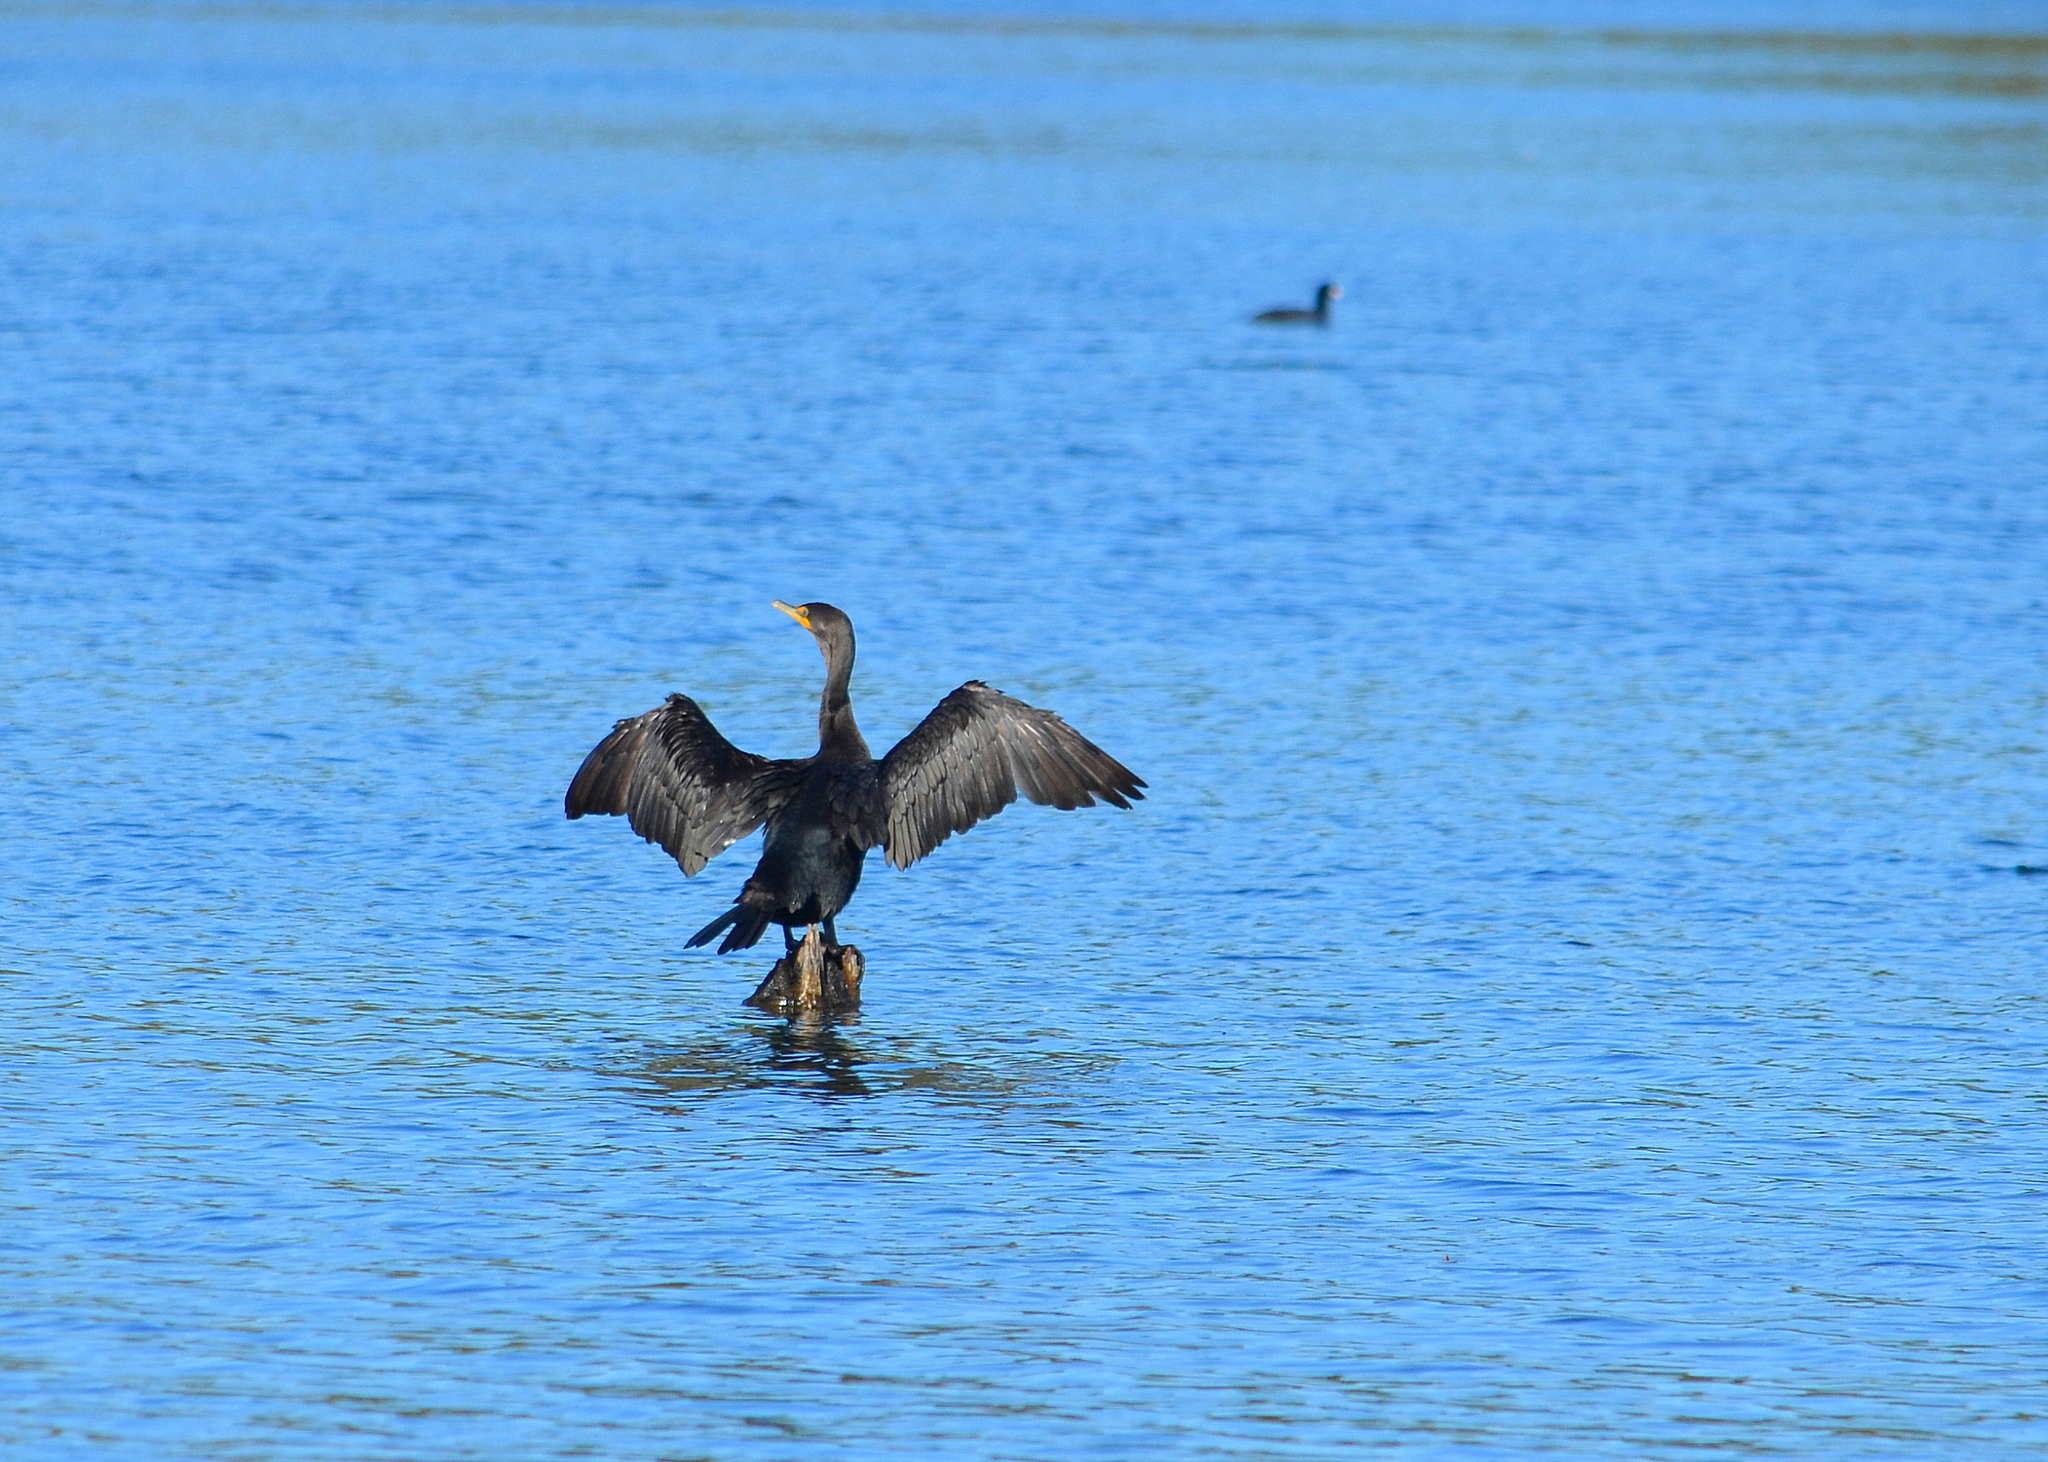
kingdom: Animalia
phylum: Chordata
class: Aves
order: Suliformes
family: Phalacrocoracidae
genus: Phalacrocorax
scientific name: Phalacrocorax auritus
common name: Double-crested cormorant
